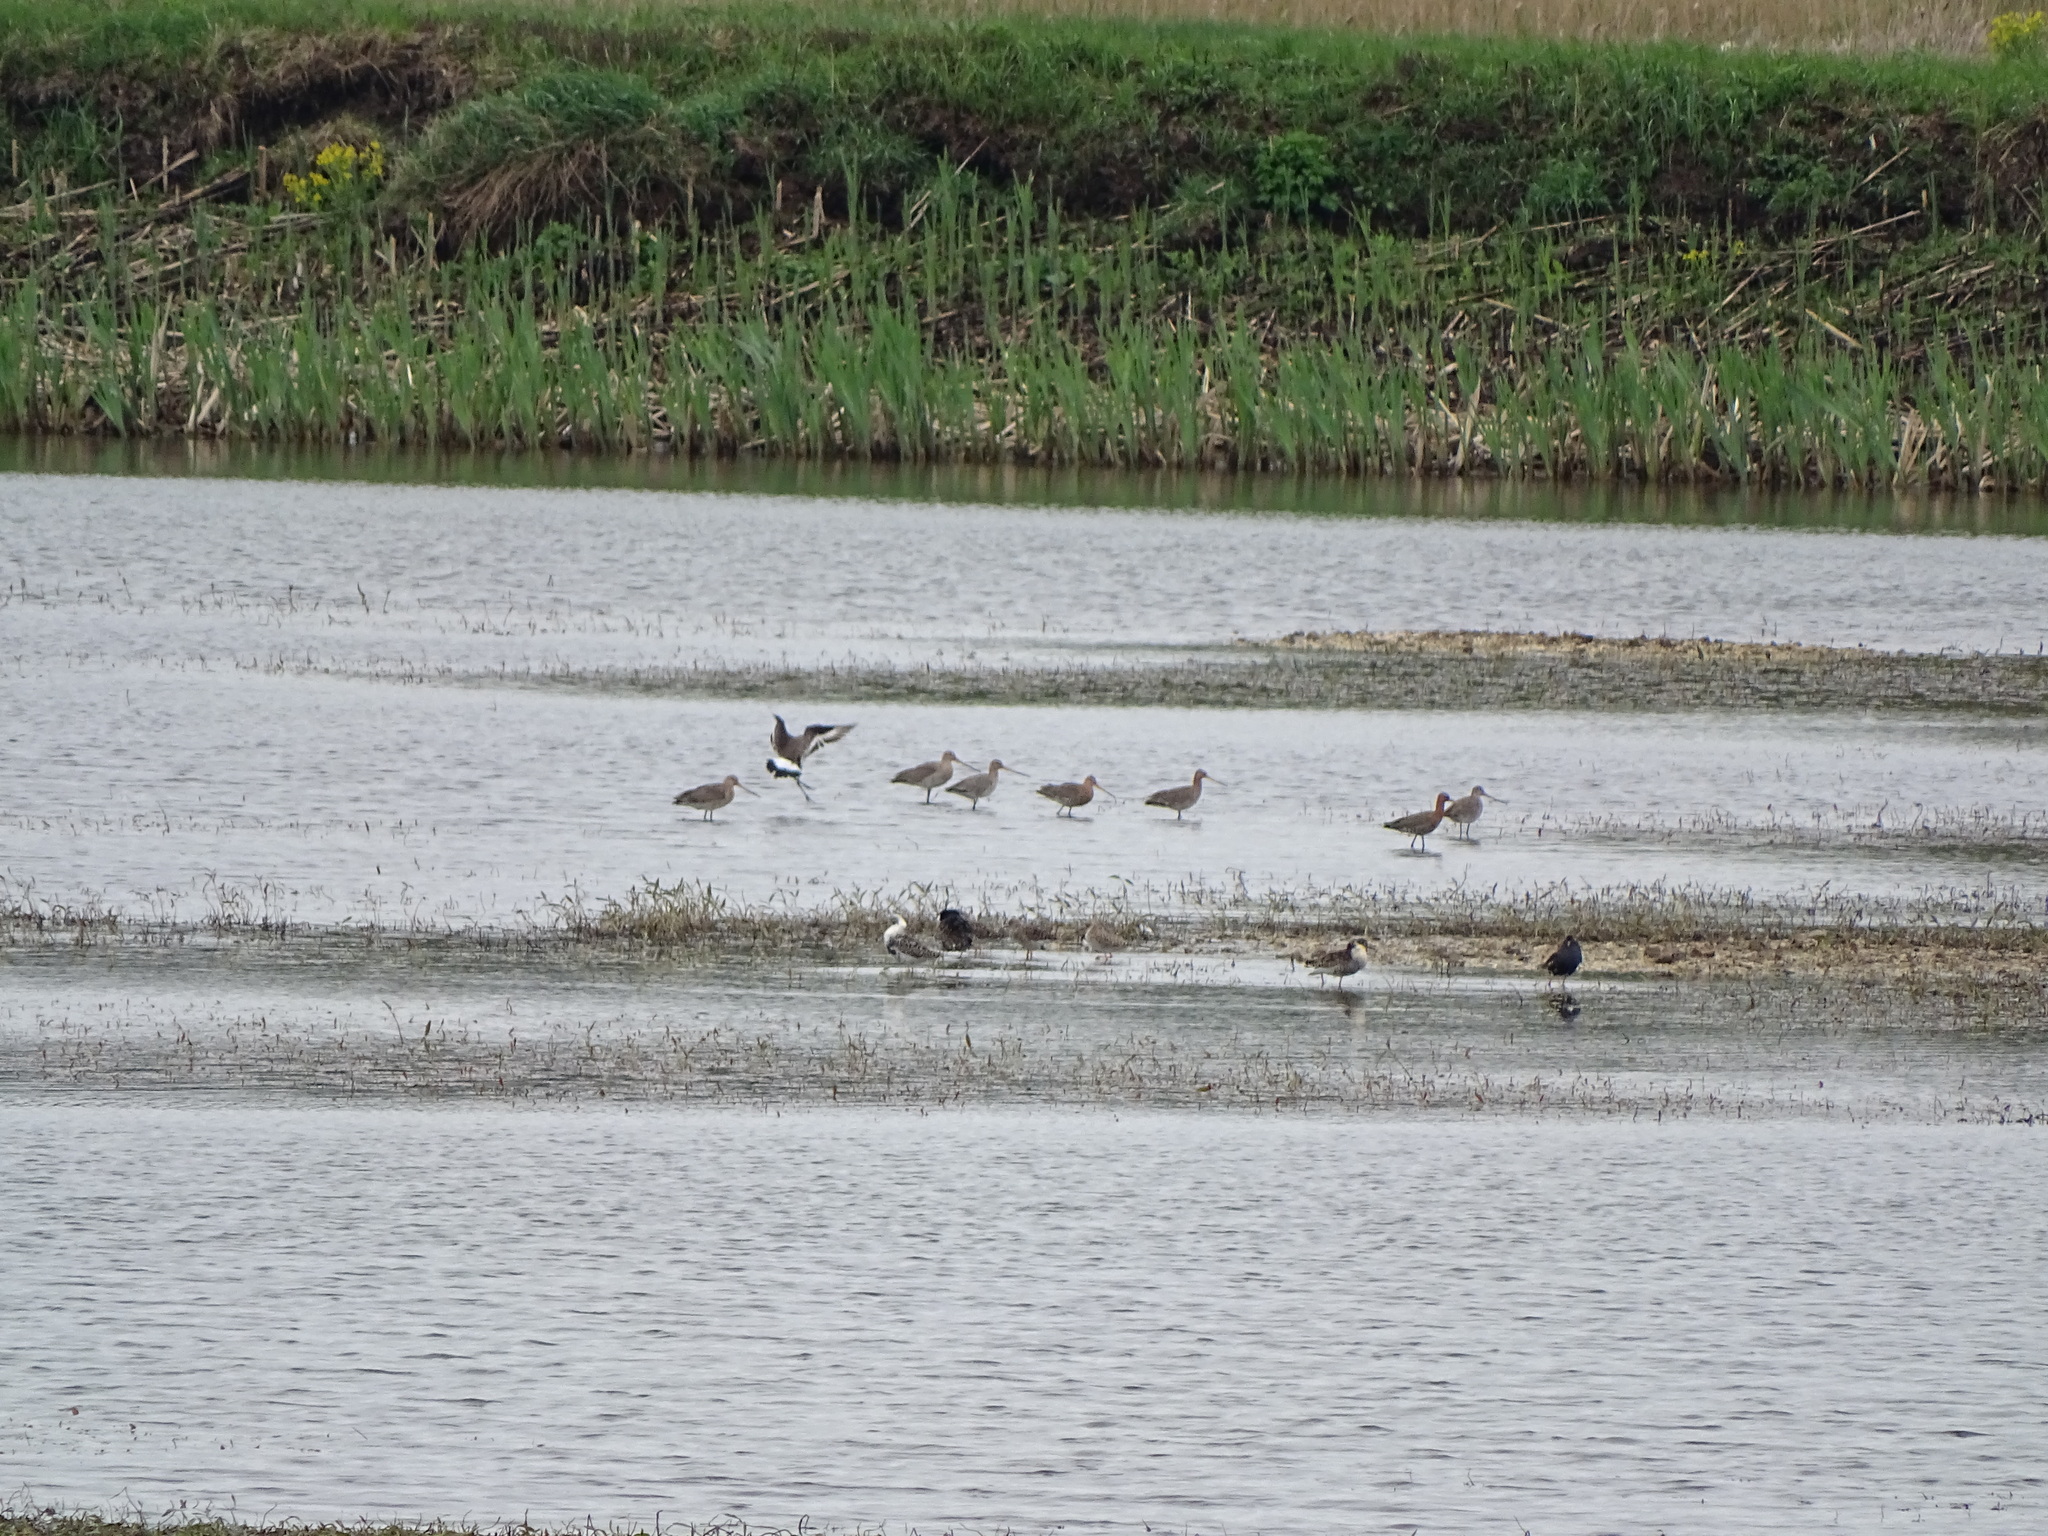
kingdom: Animalia
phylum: Chordata
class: Aves
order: Charadriiformes
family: Scolopacidae
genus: Limosa
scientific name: Limosa limosa
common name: Black-tailed godwit
